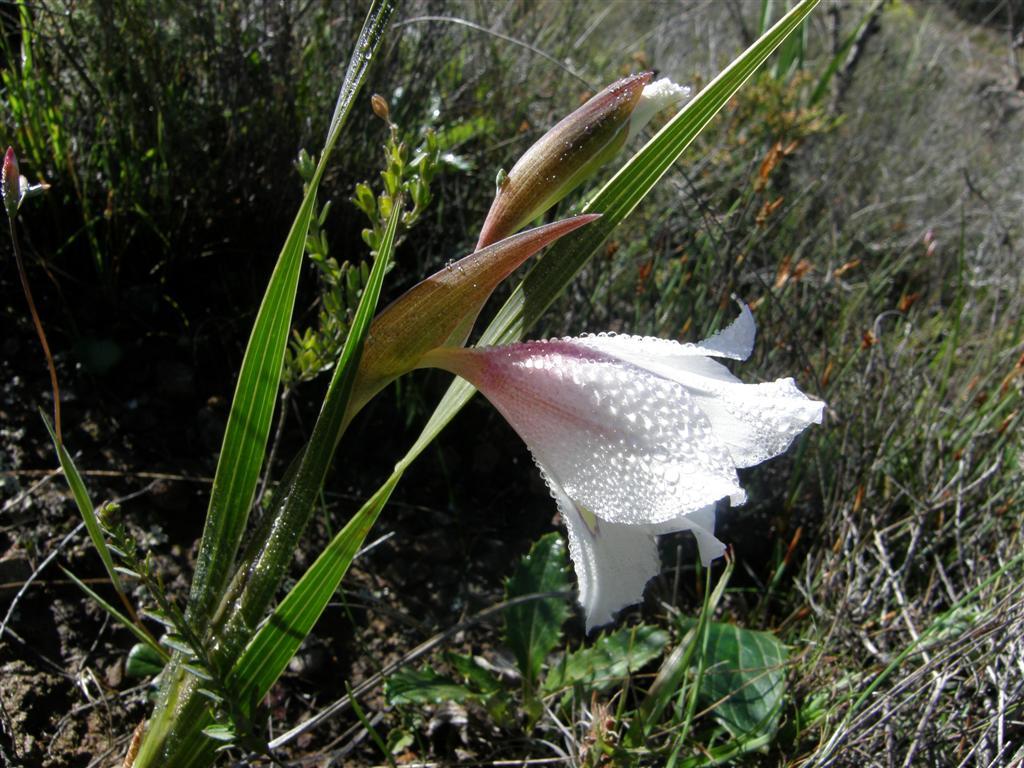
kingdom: Plantae
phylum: Tracheophyta
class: Liliopsida
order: Asparagales
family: Iridaceae
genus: Gladiolus
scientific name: Gladiolus rudis
